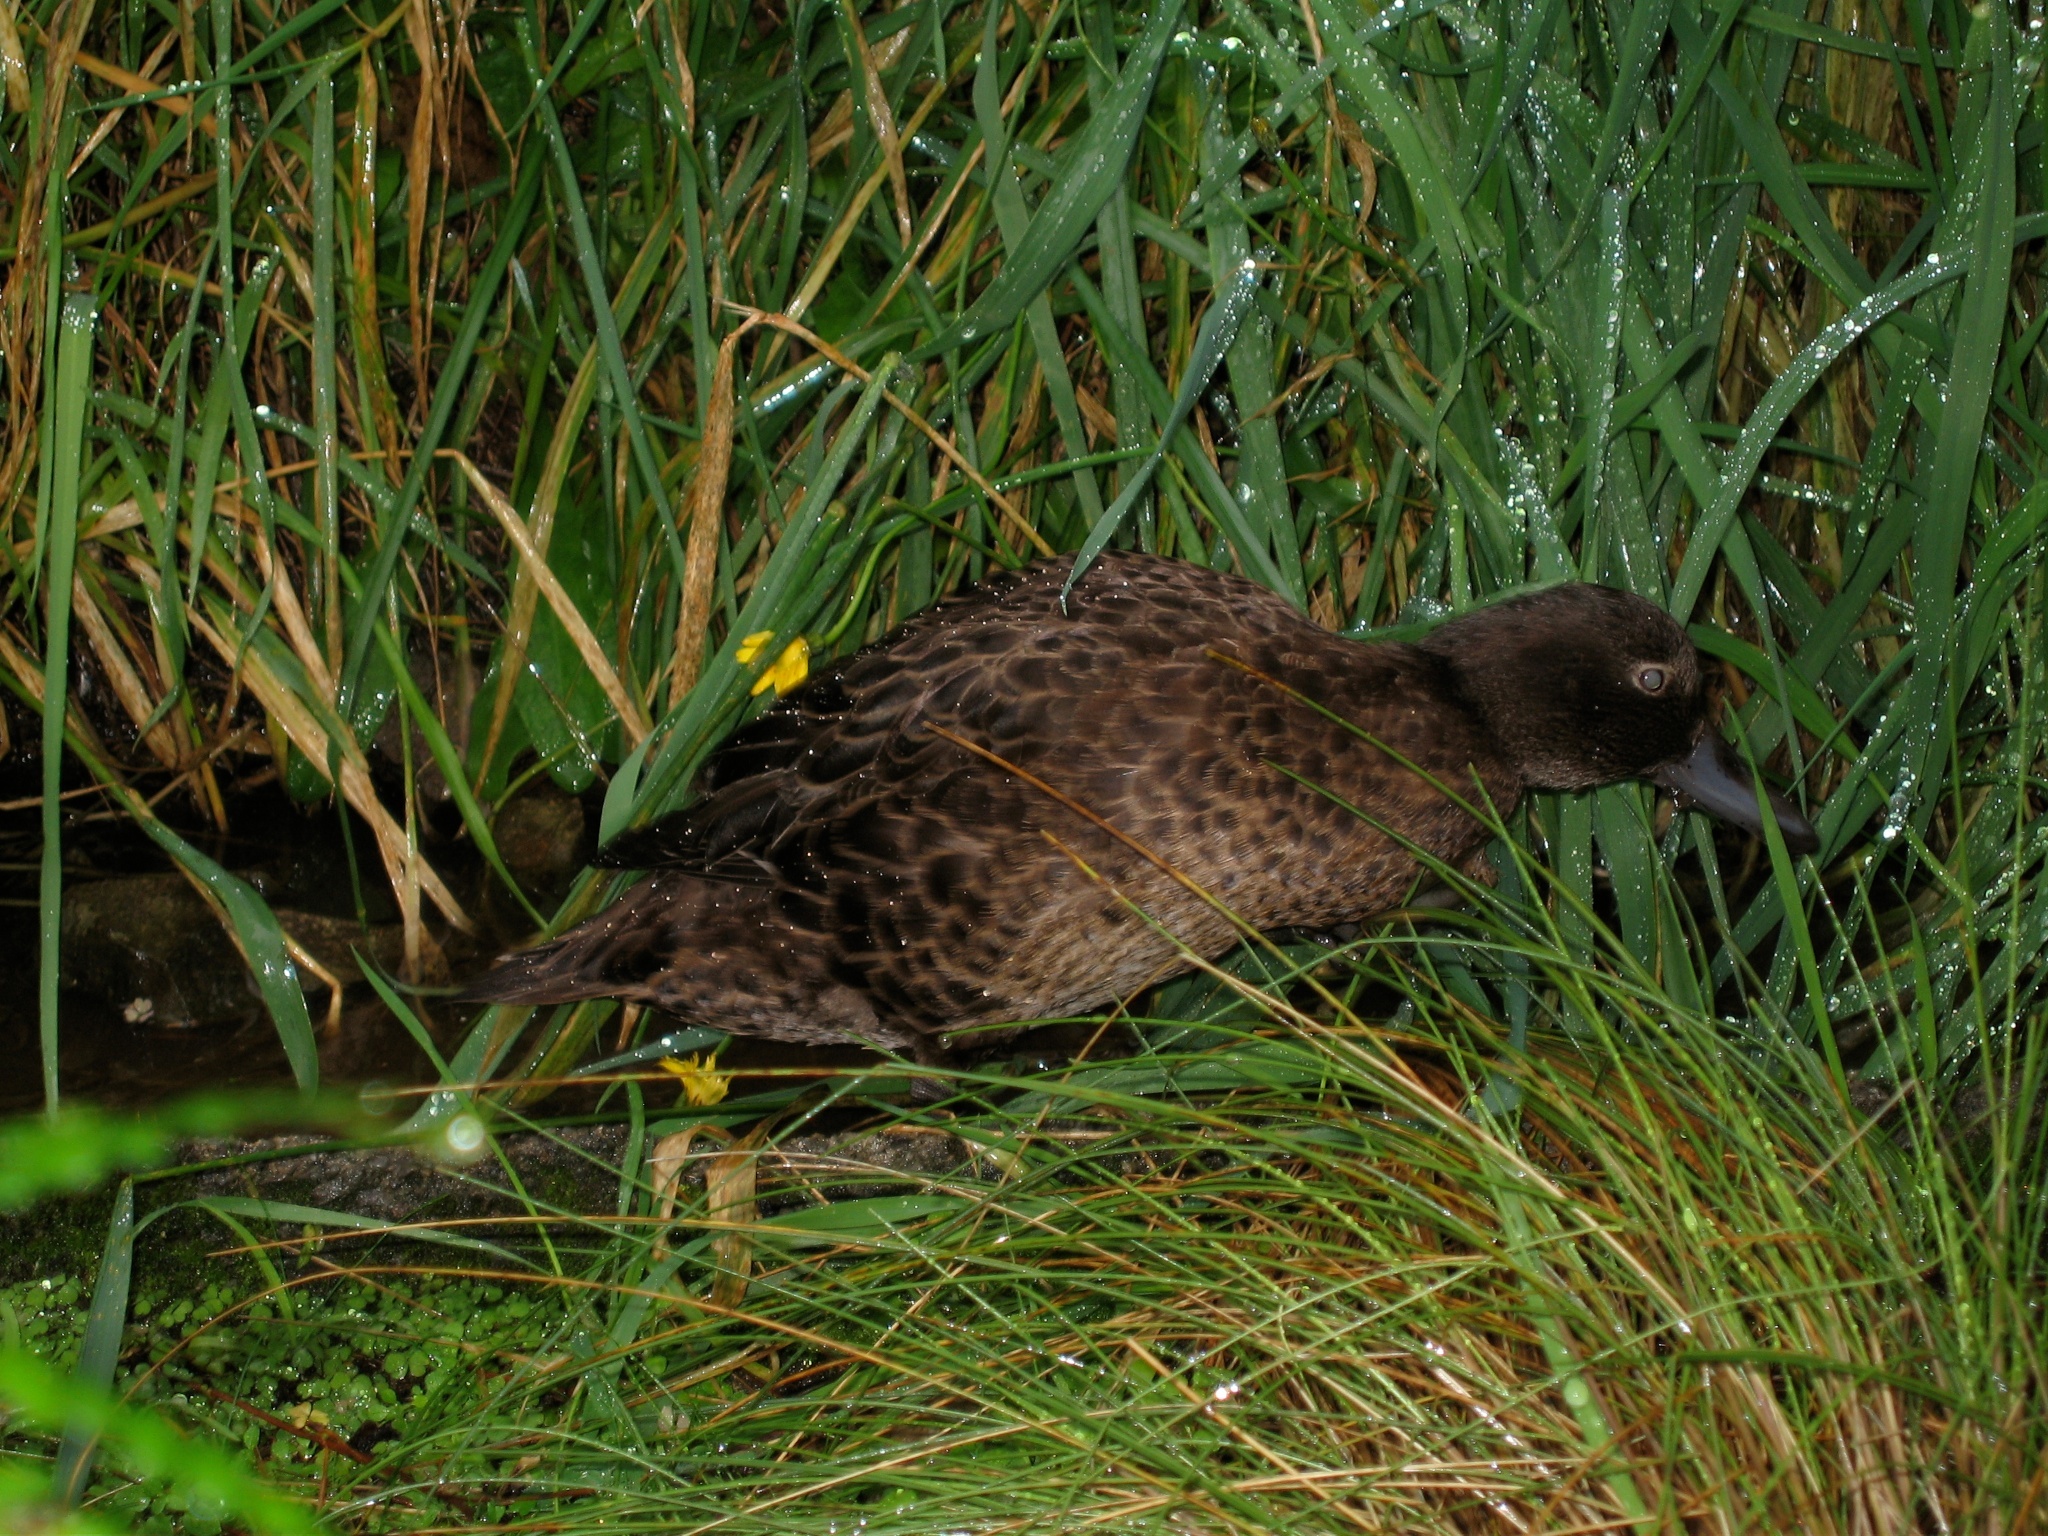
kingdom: Animalia
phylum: Chordata
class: Aves
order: Anseriformes
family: Anatidae
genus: Anas
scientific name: Anas chlorotis
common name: Brown teal
